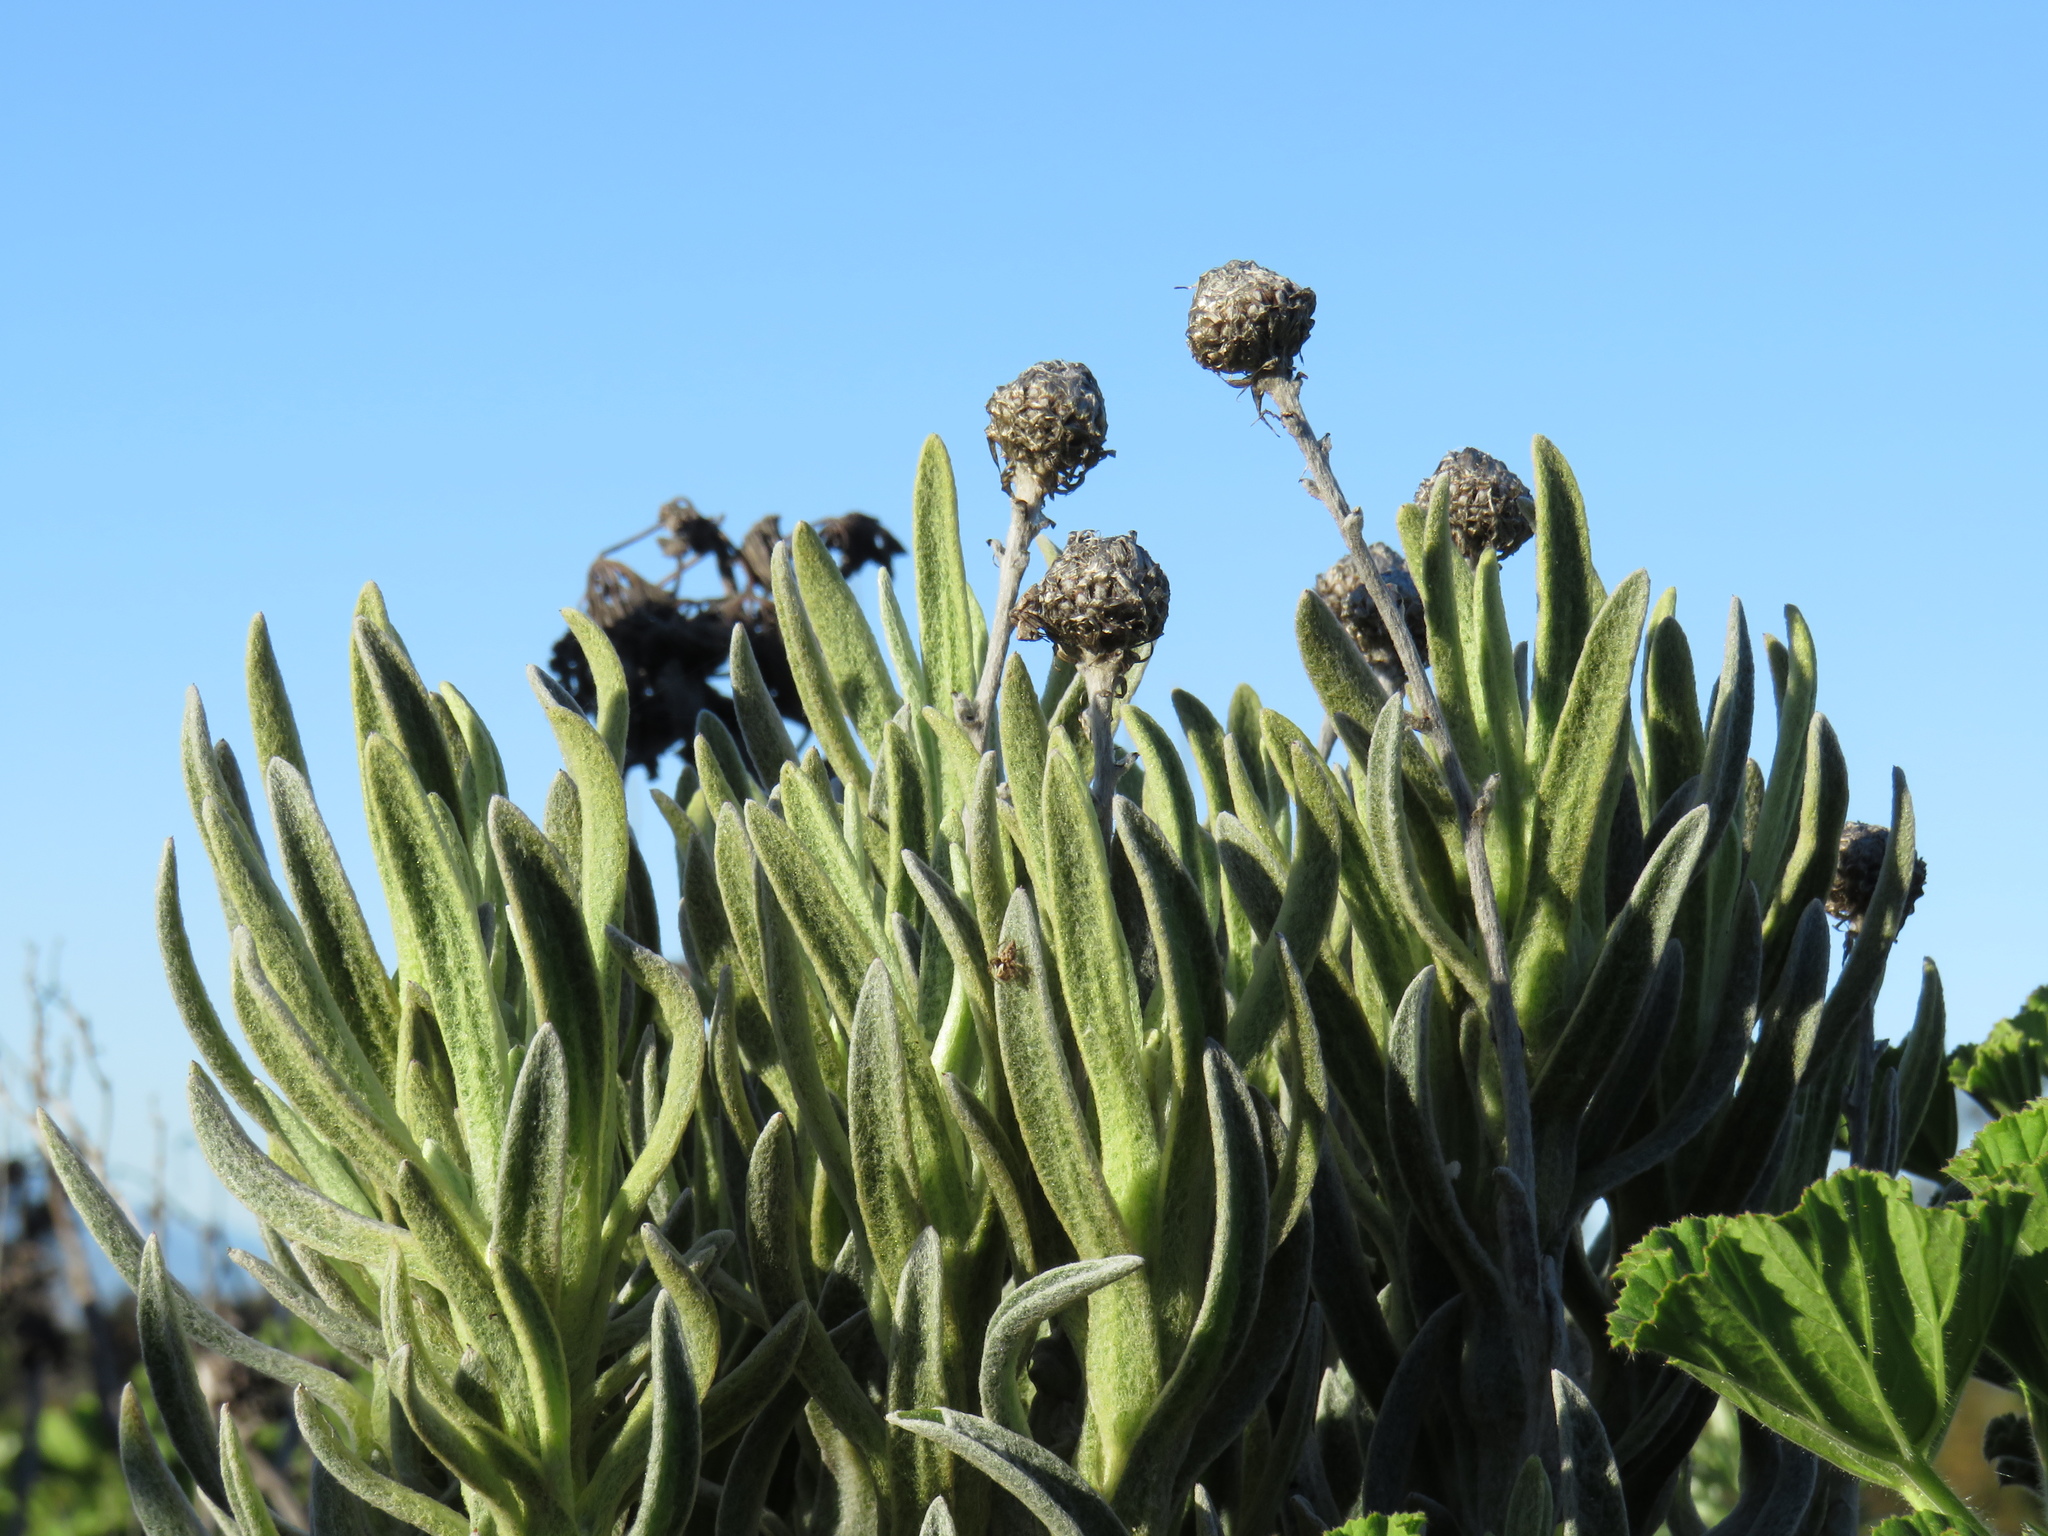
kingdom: Plantae
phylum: Tracheophyta
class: Magnoliopsida
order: Asterales
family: Asteraceae
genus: Syncarpha
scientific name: Syncarpha vestita
